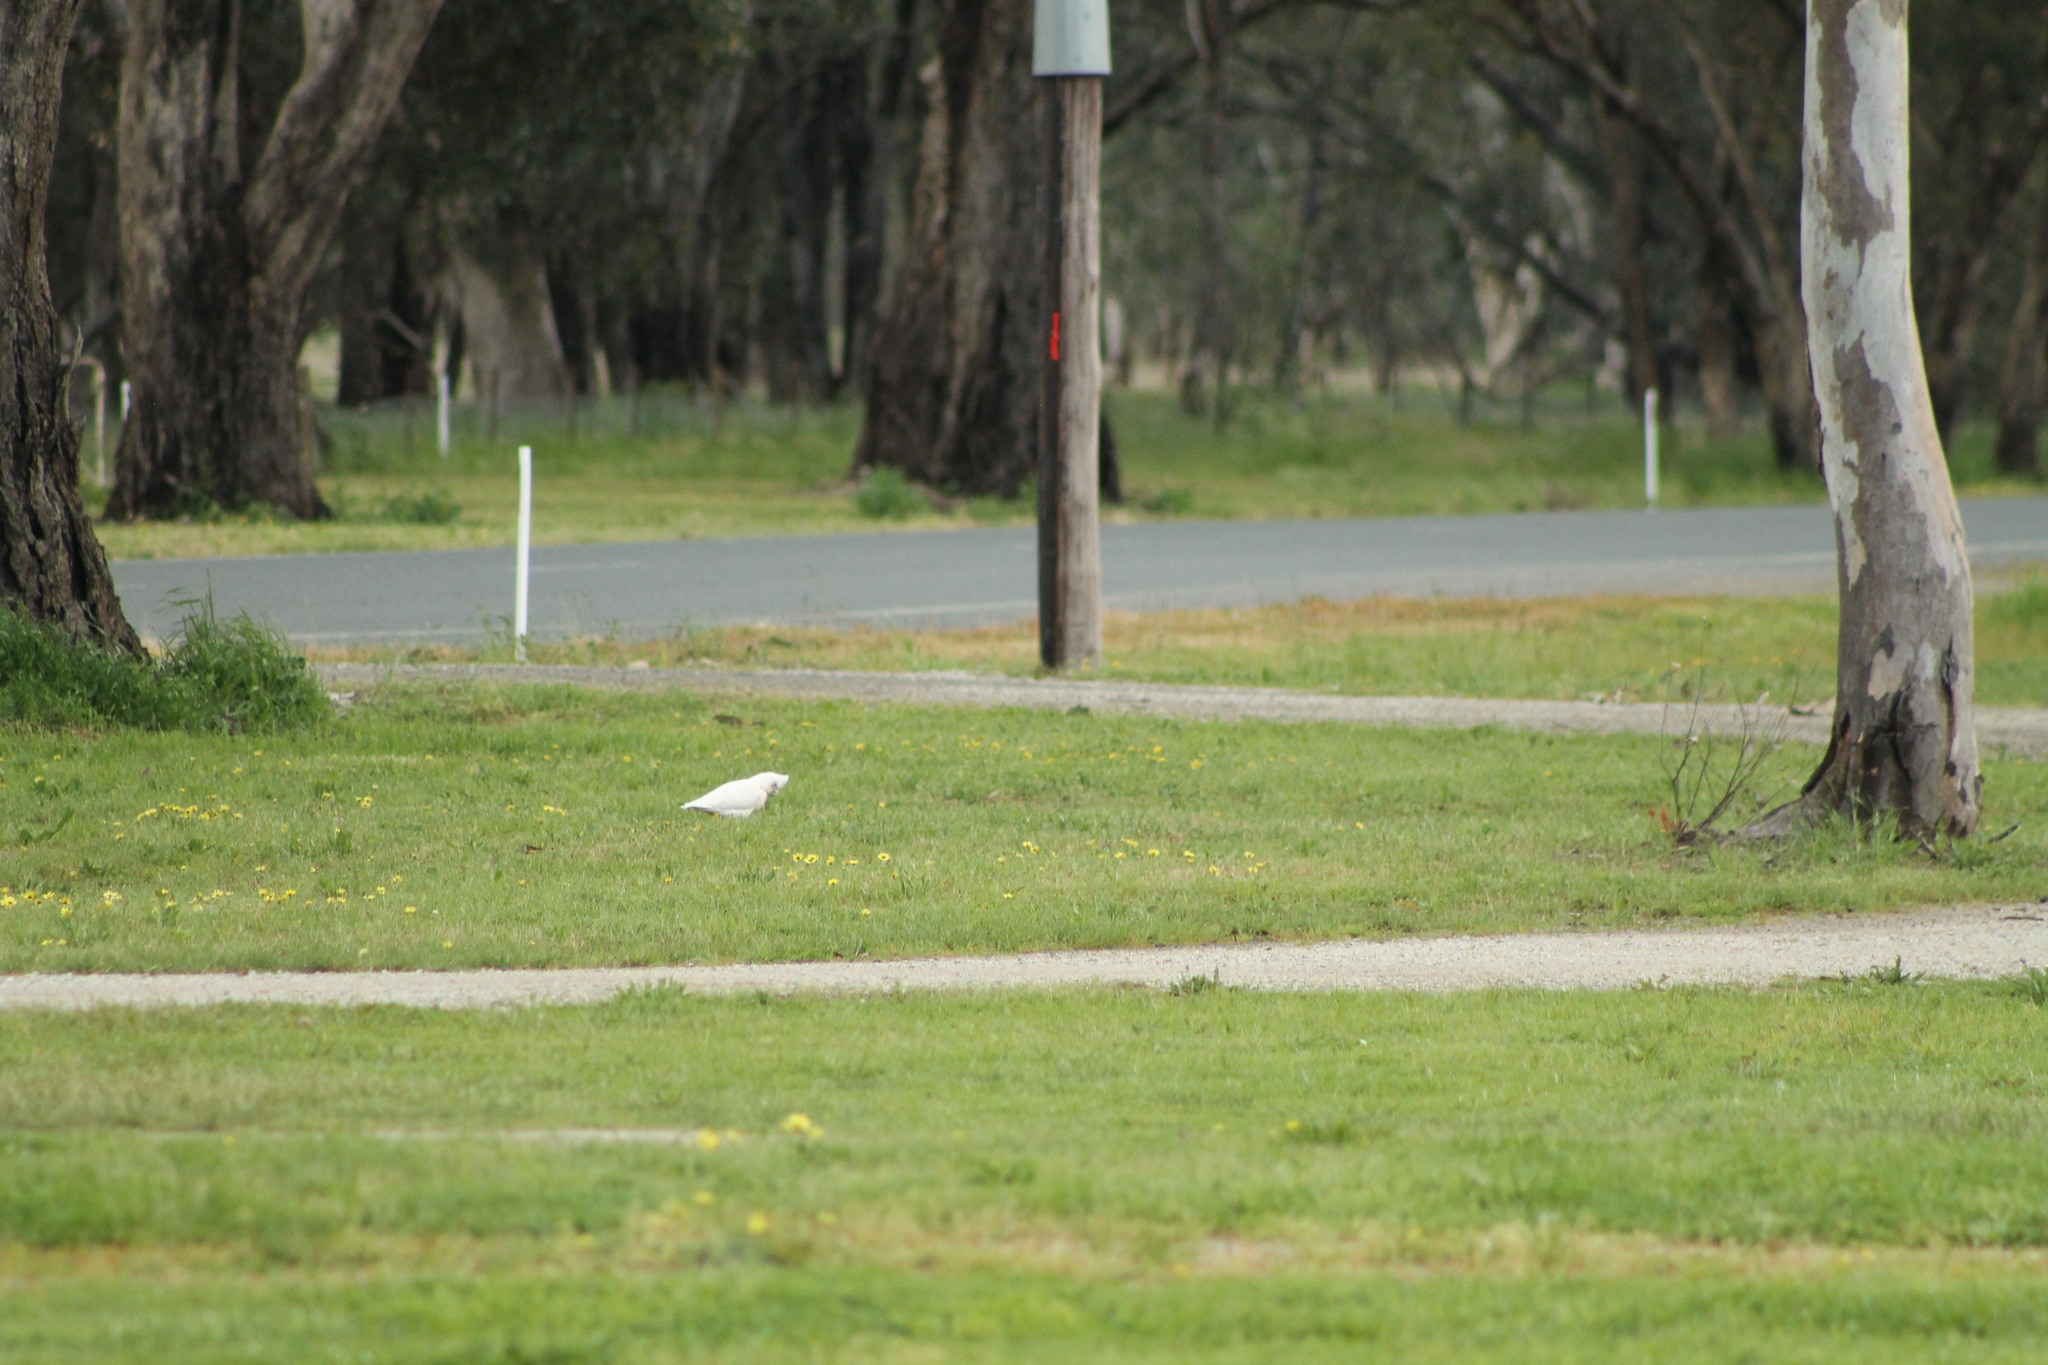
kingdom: Animalia
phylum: Chordata
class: Aves
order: Psittaciformes
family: Psittacidae
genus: Cacatua
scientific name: Cacatua sanguinea
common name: Little corella
